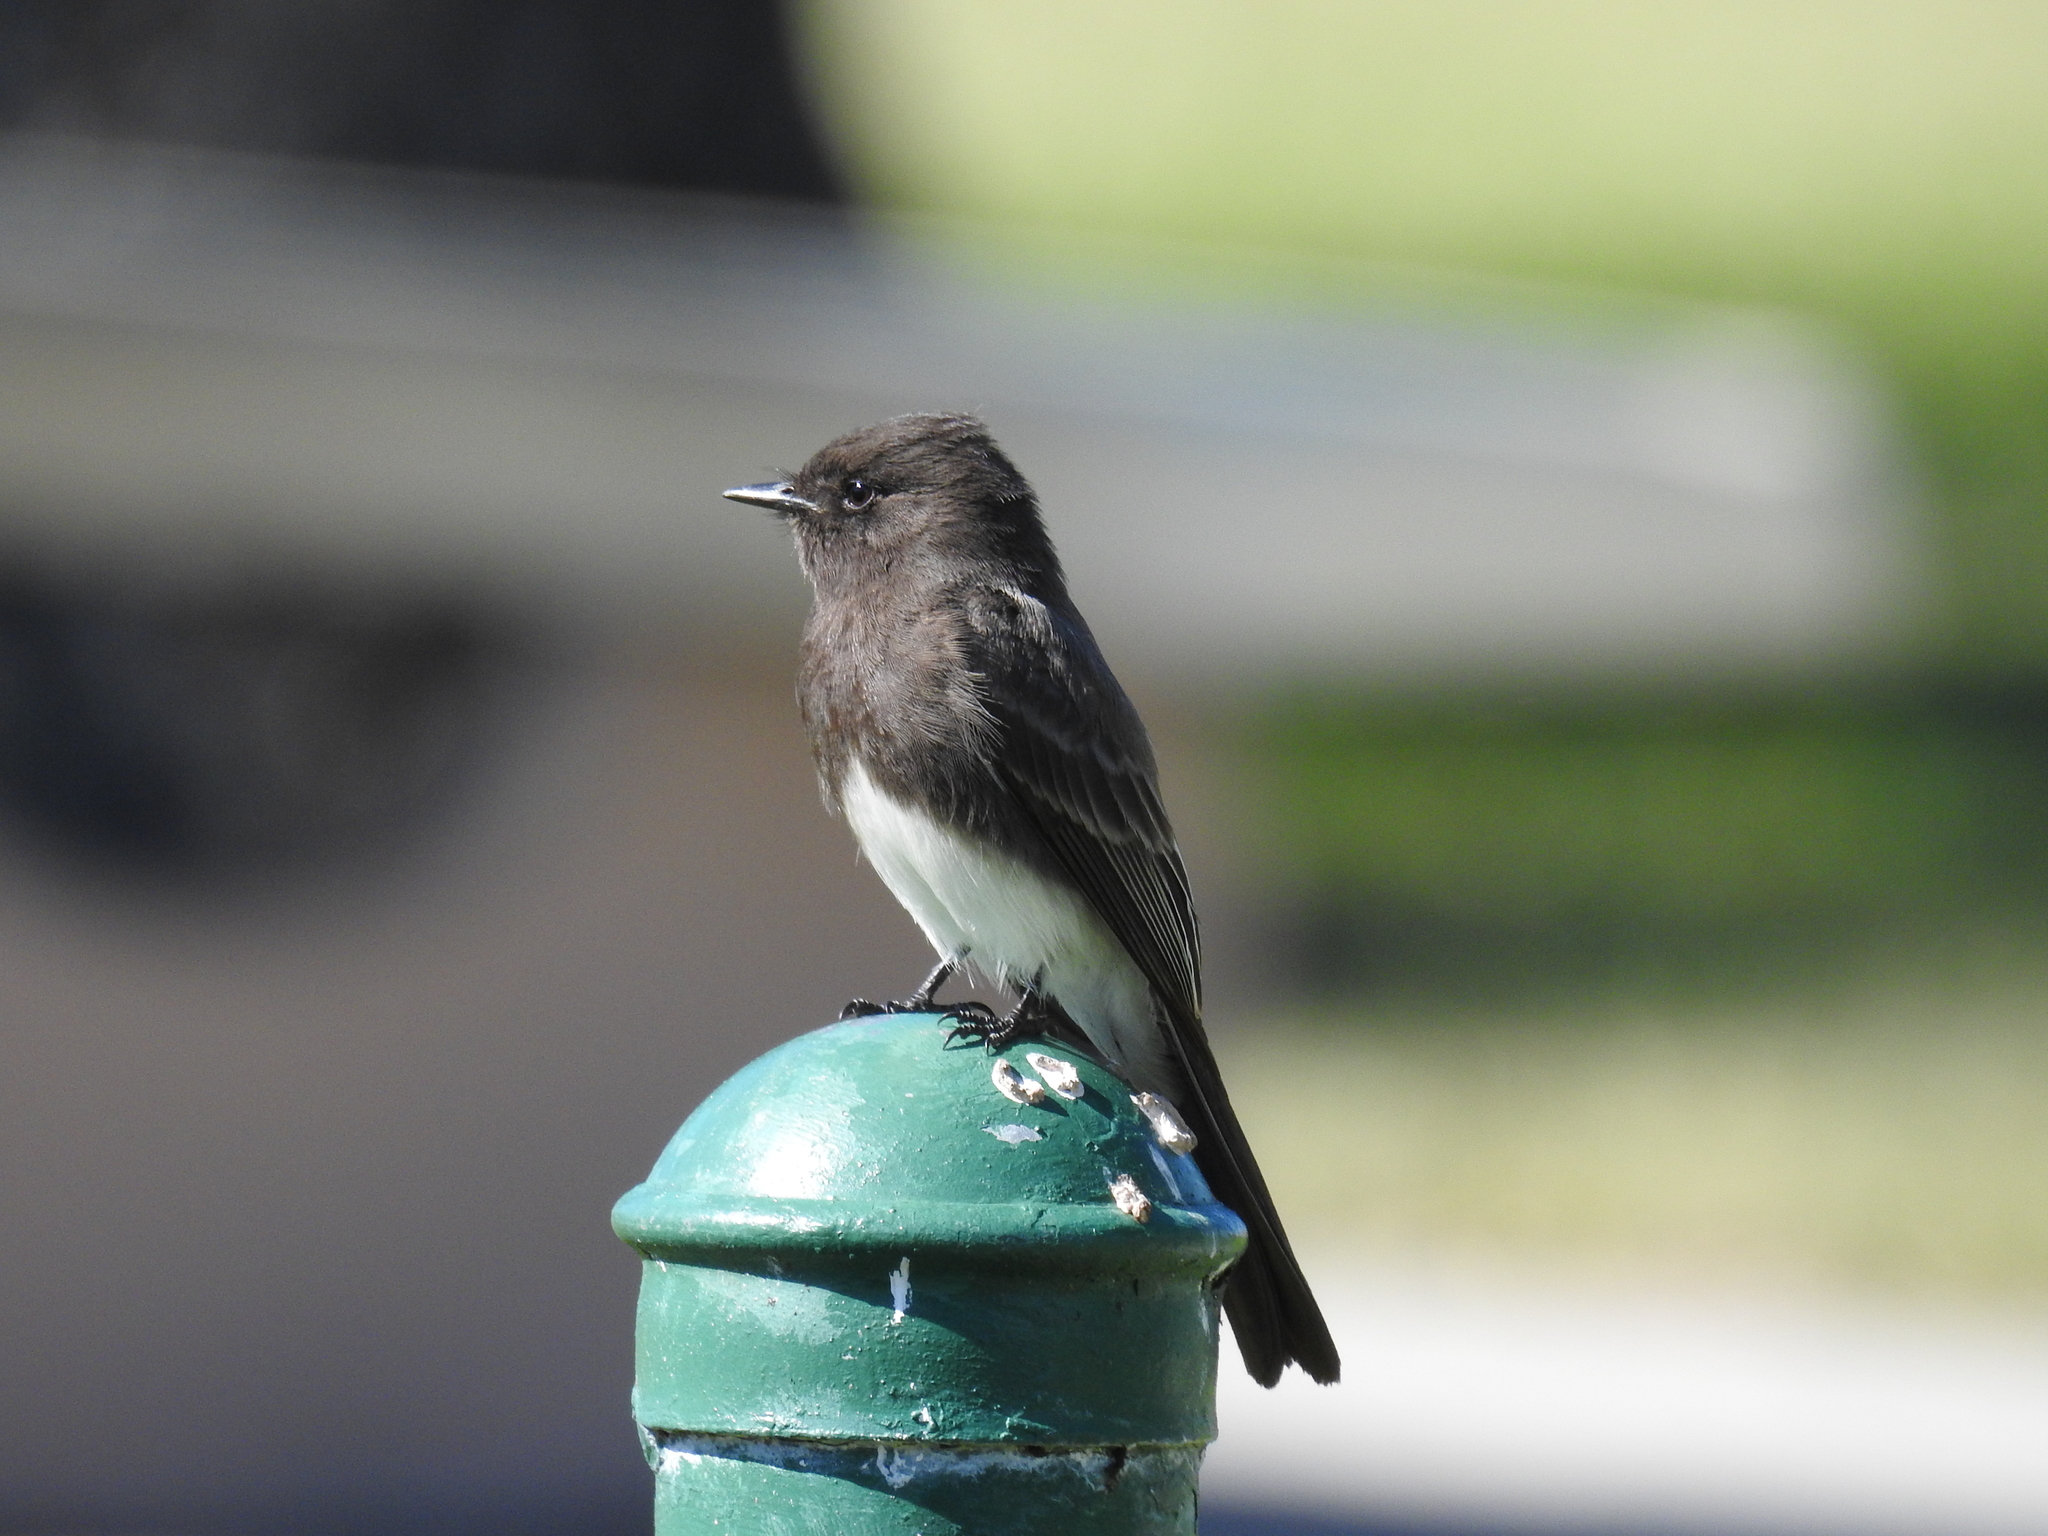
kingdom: Animalia
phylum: Chordata
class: Aves
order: Passeriformes
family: Tyrannidae
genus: Sayornis
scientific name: Sayornis nigricans
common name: Black phoebe
